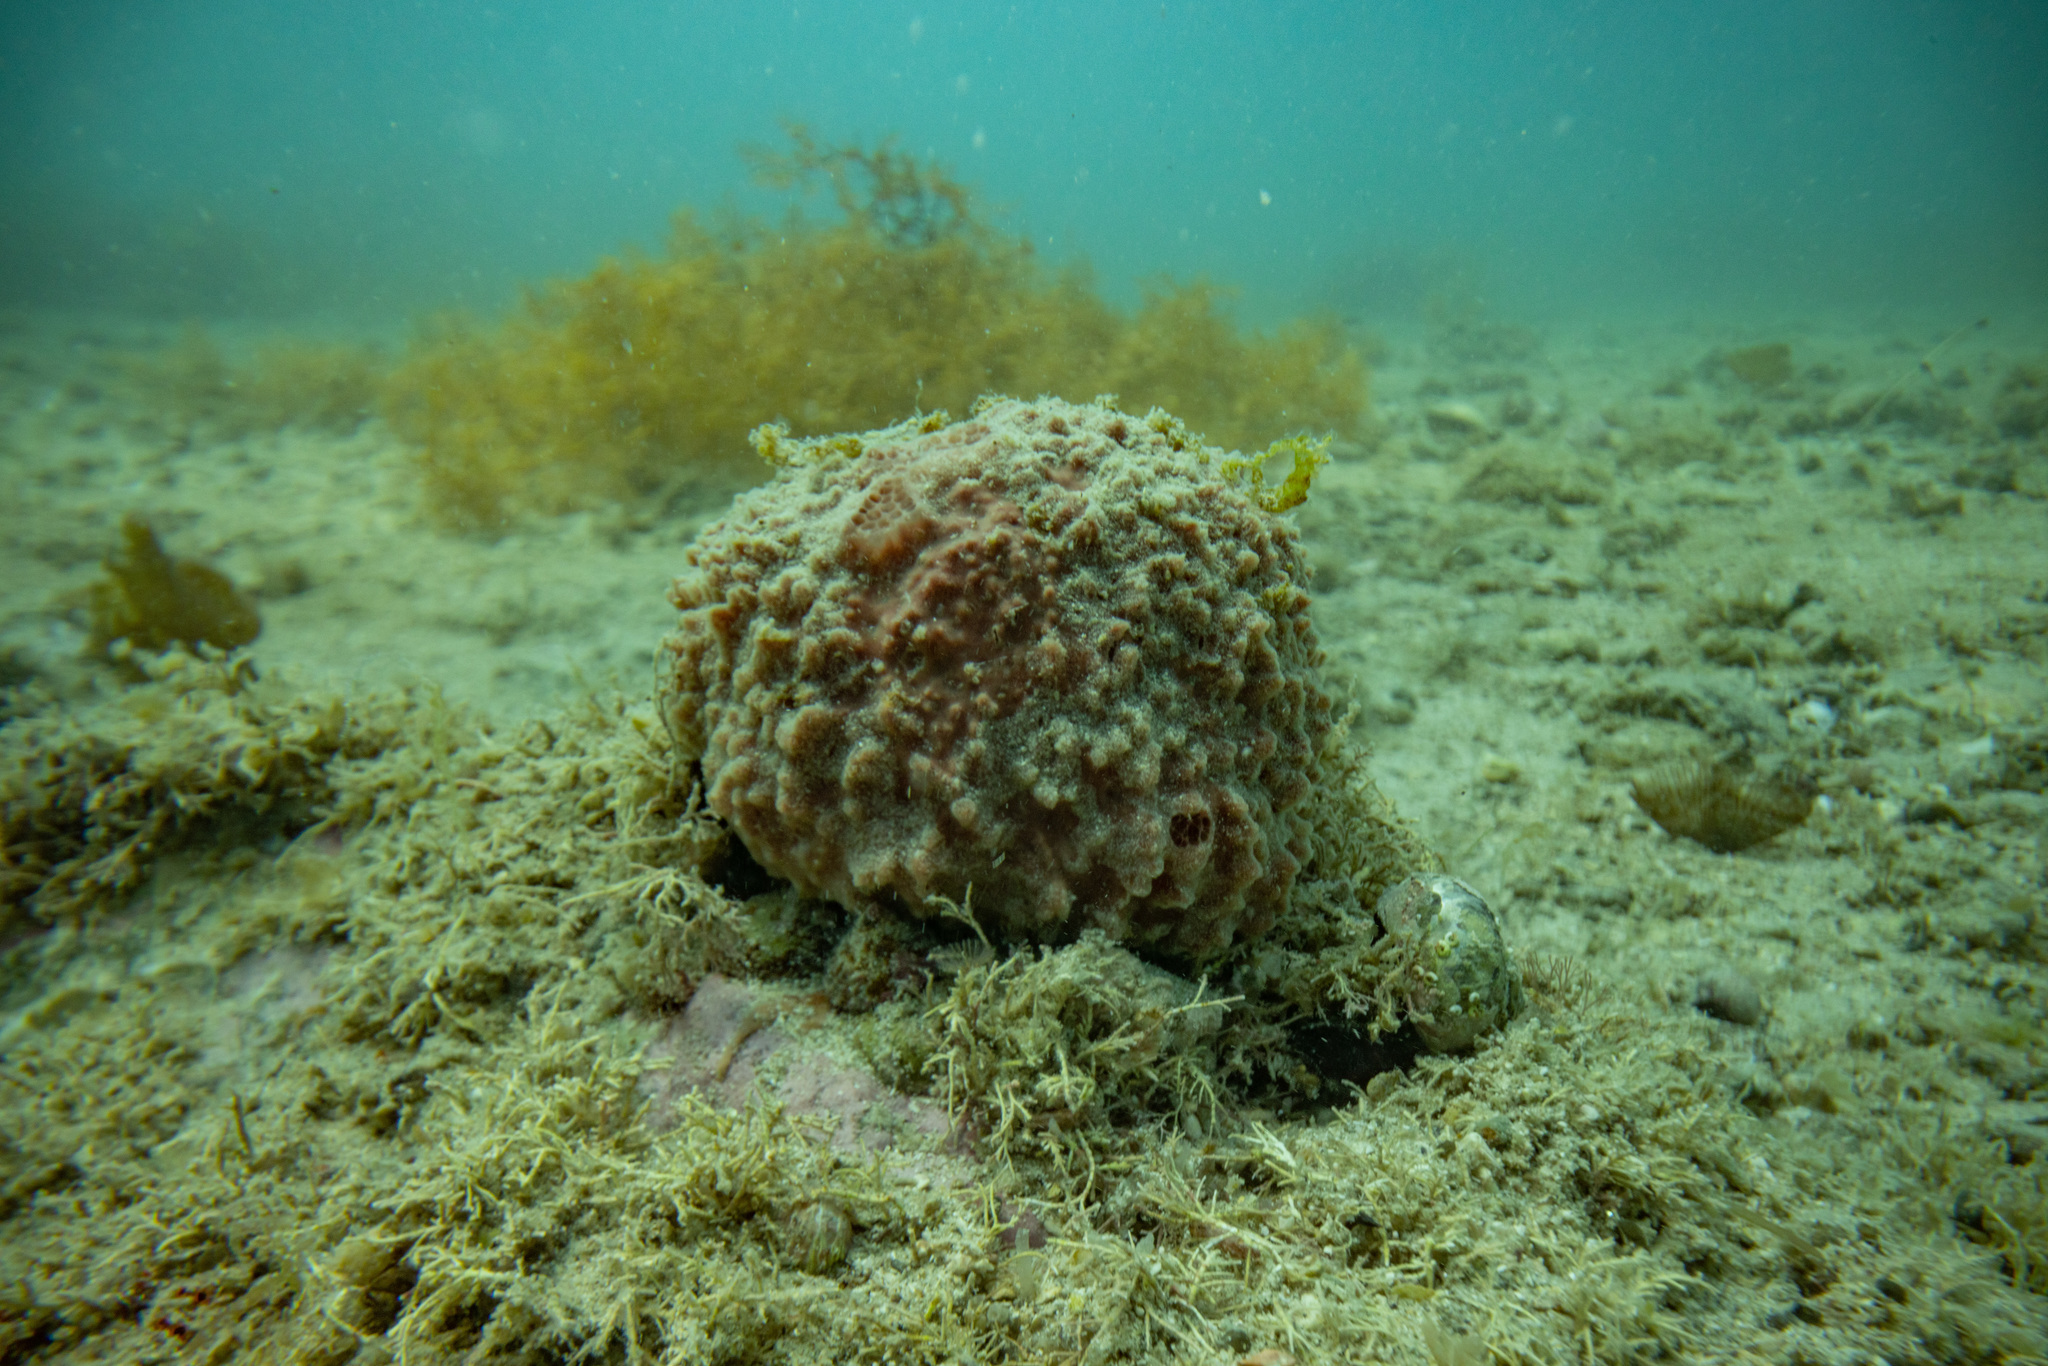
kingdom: Animalia
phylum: Porifera
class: Demospongiae
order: Suberitida
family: Suberitidae
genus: Aaptos
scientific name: Aaptos tenta
